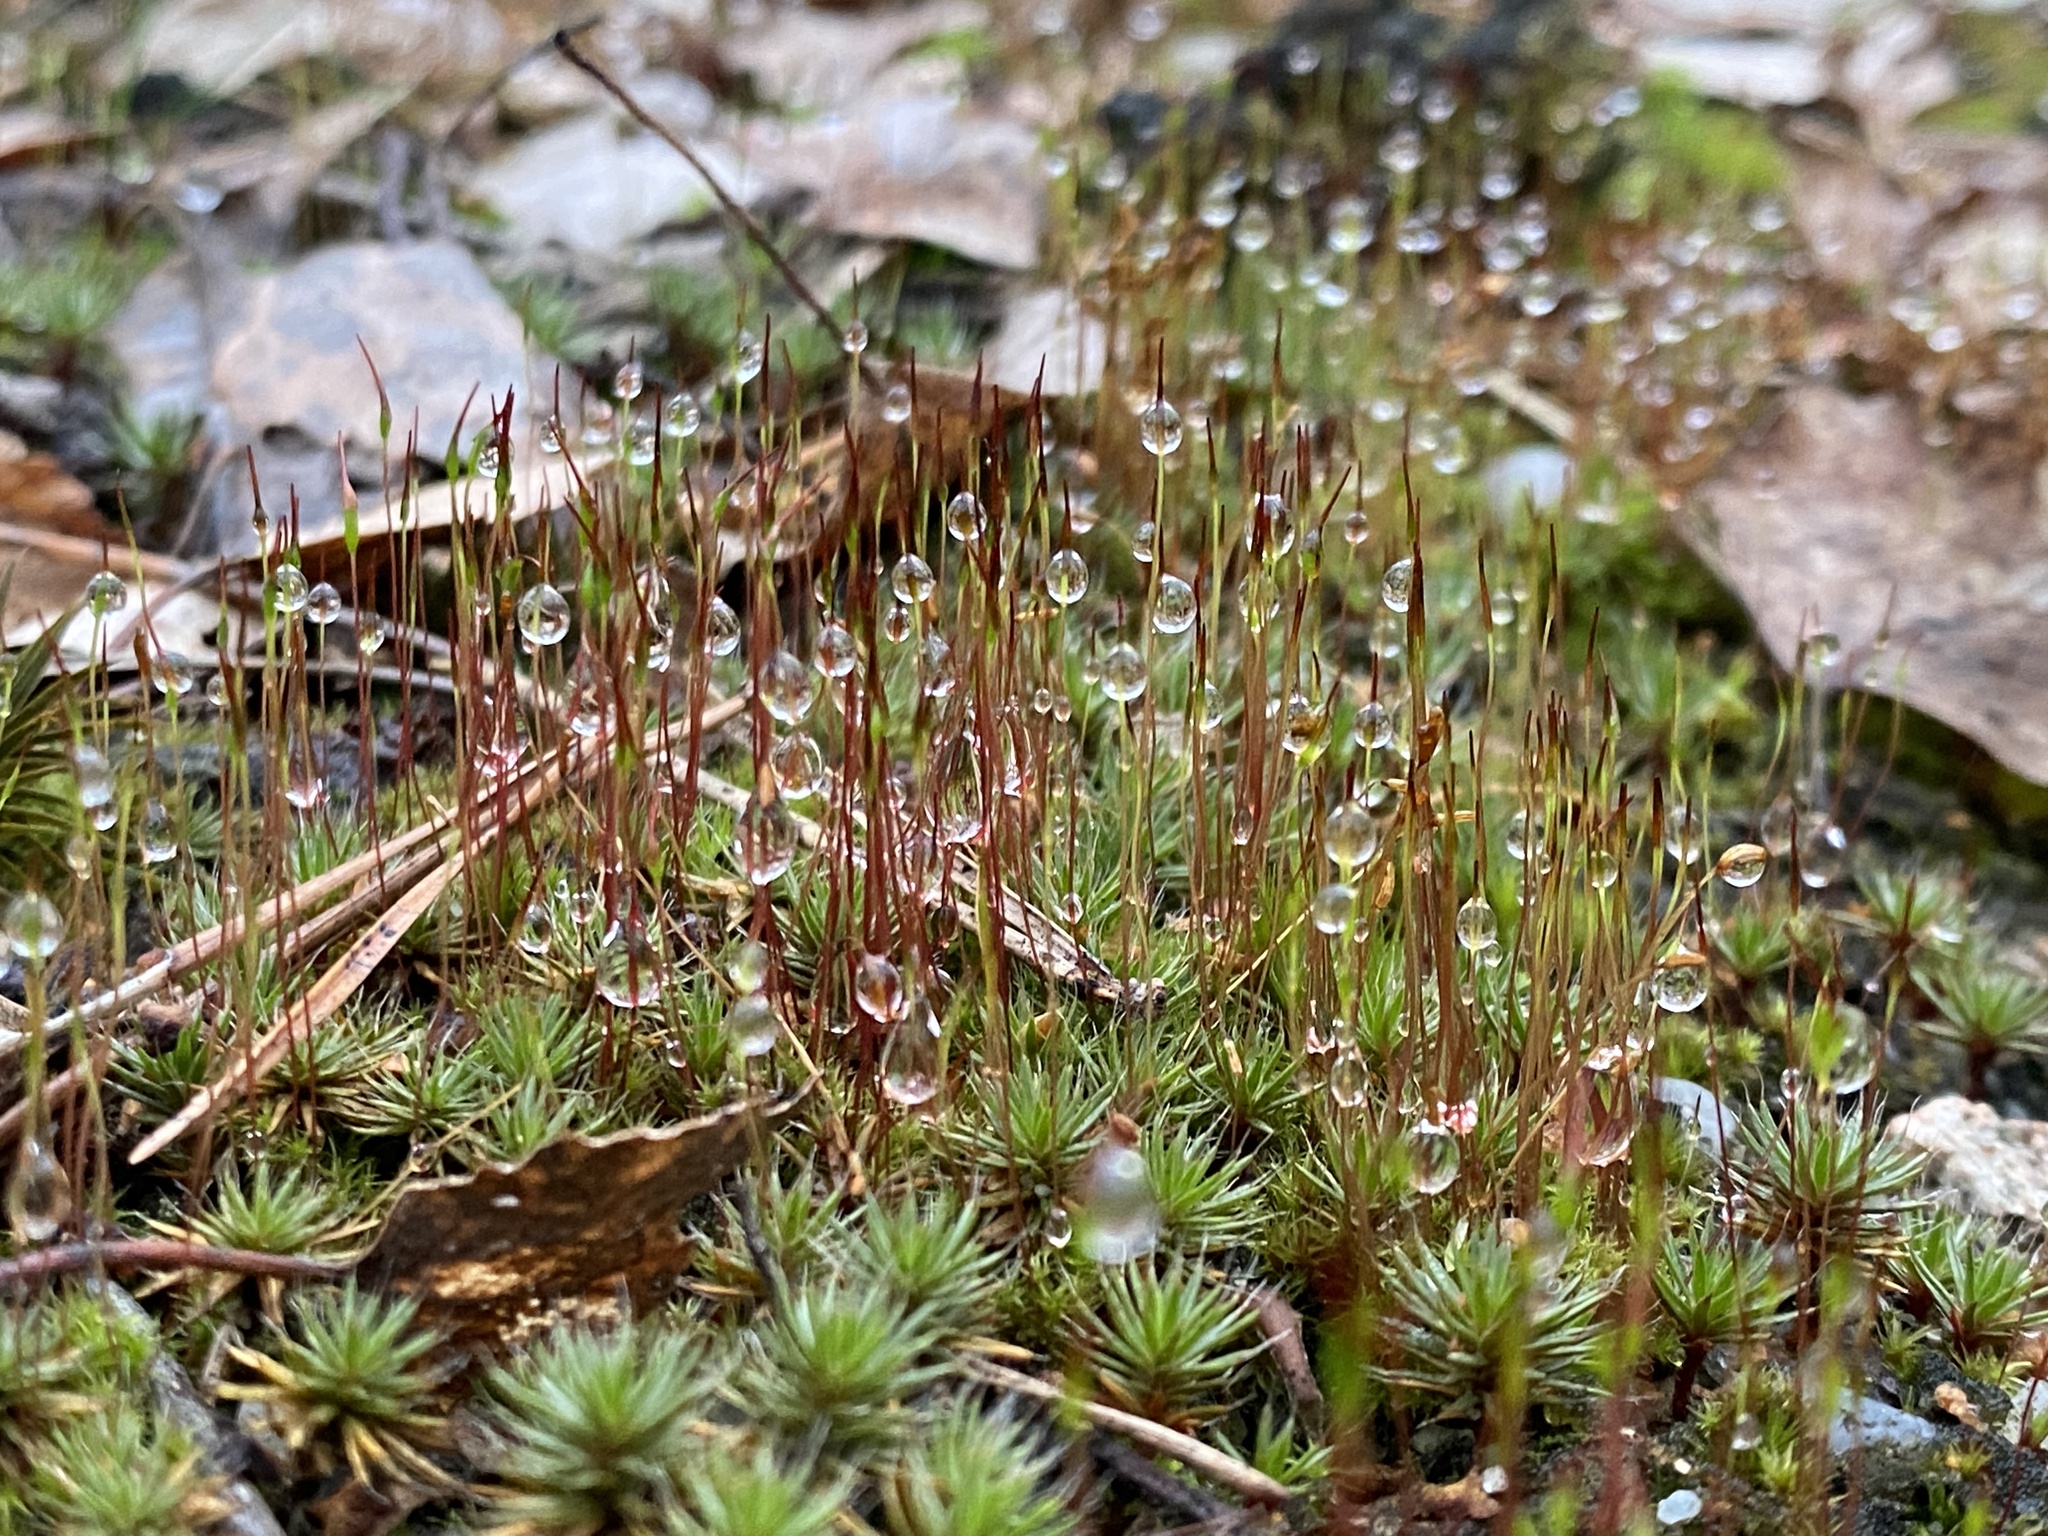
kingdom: Plantae
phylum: Bryophyta
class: Polytrichopsida
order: Polytrichales
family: Polytrichaceae
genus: Polytrichum
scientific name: Polytrichum piliferum
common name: Bristly haircap
